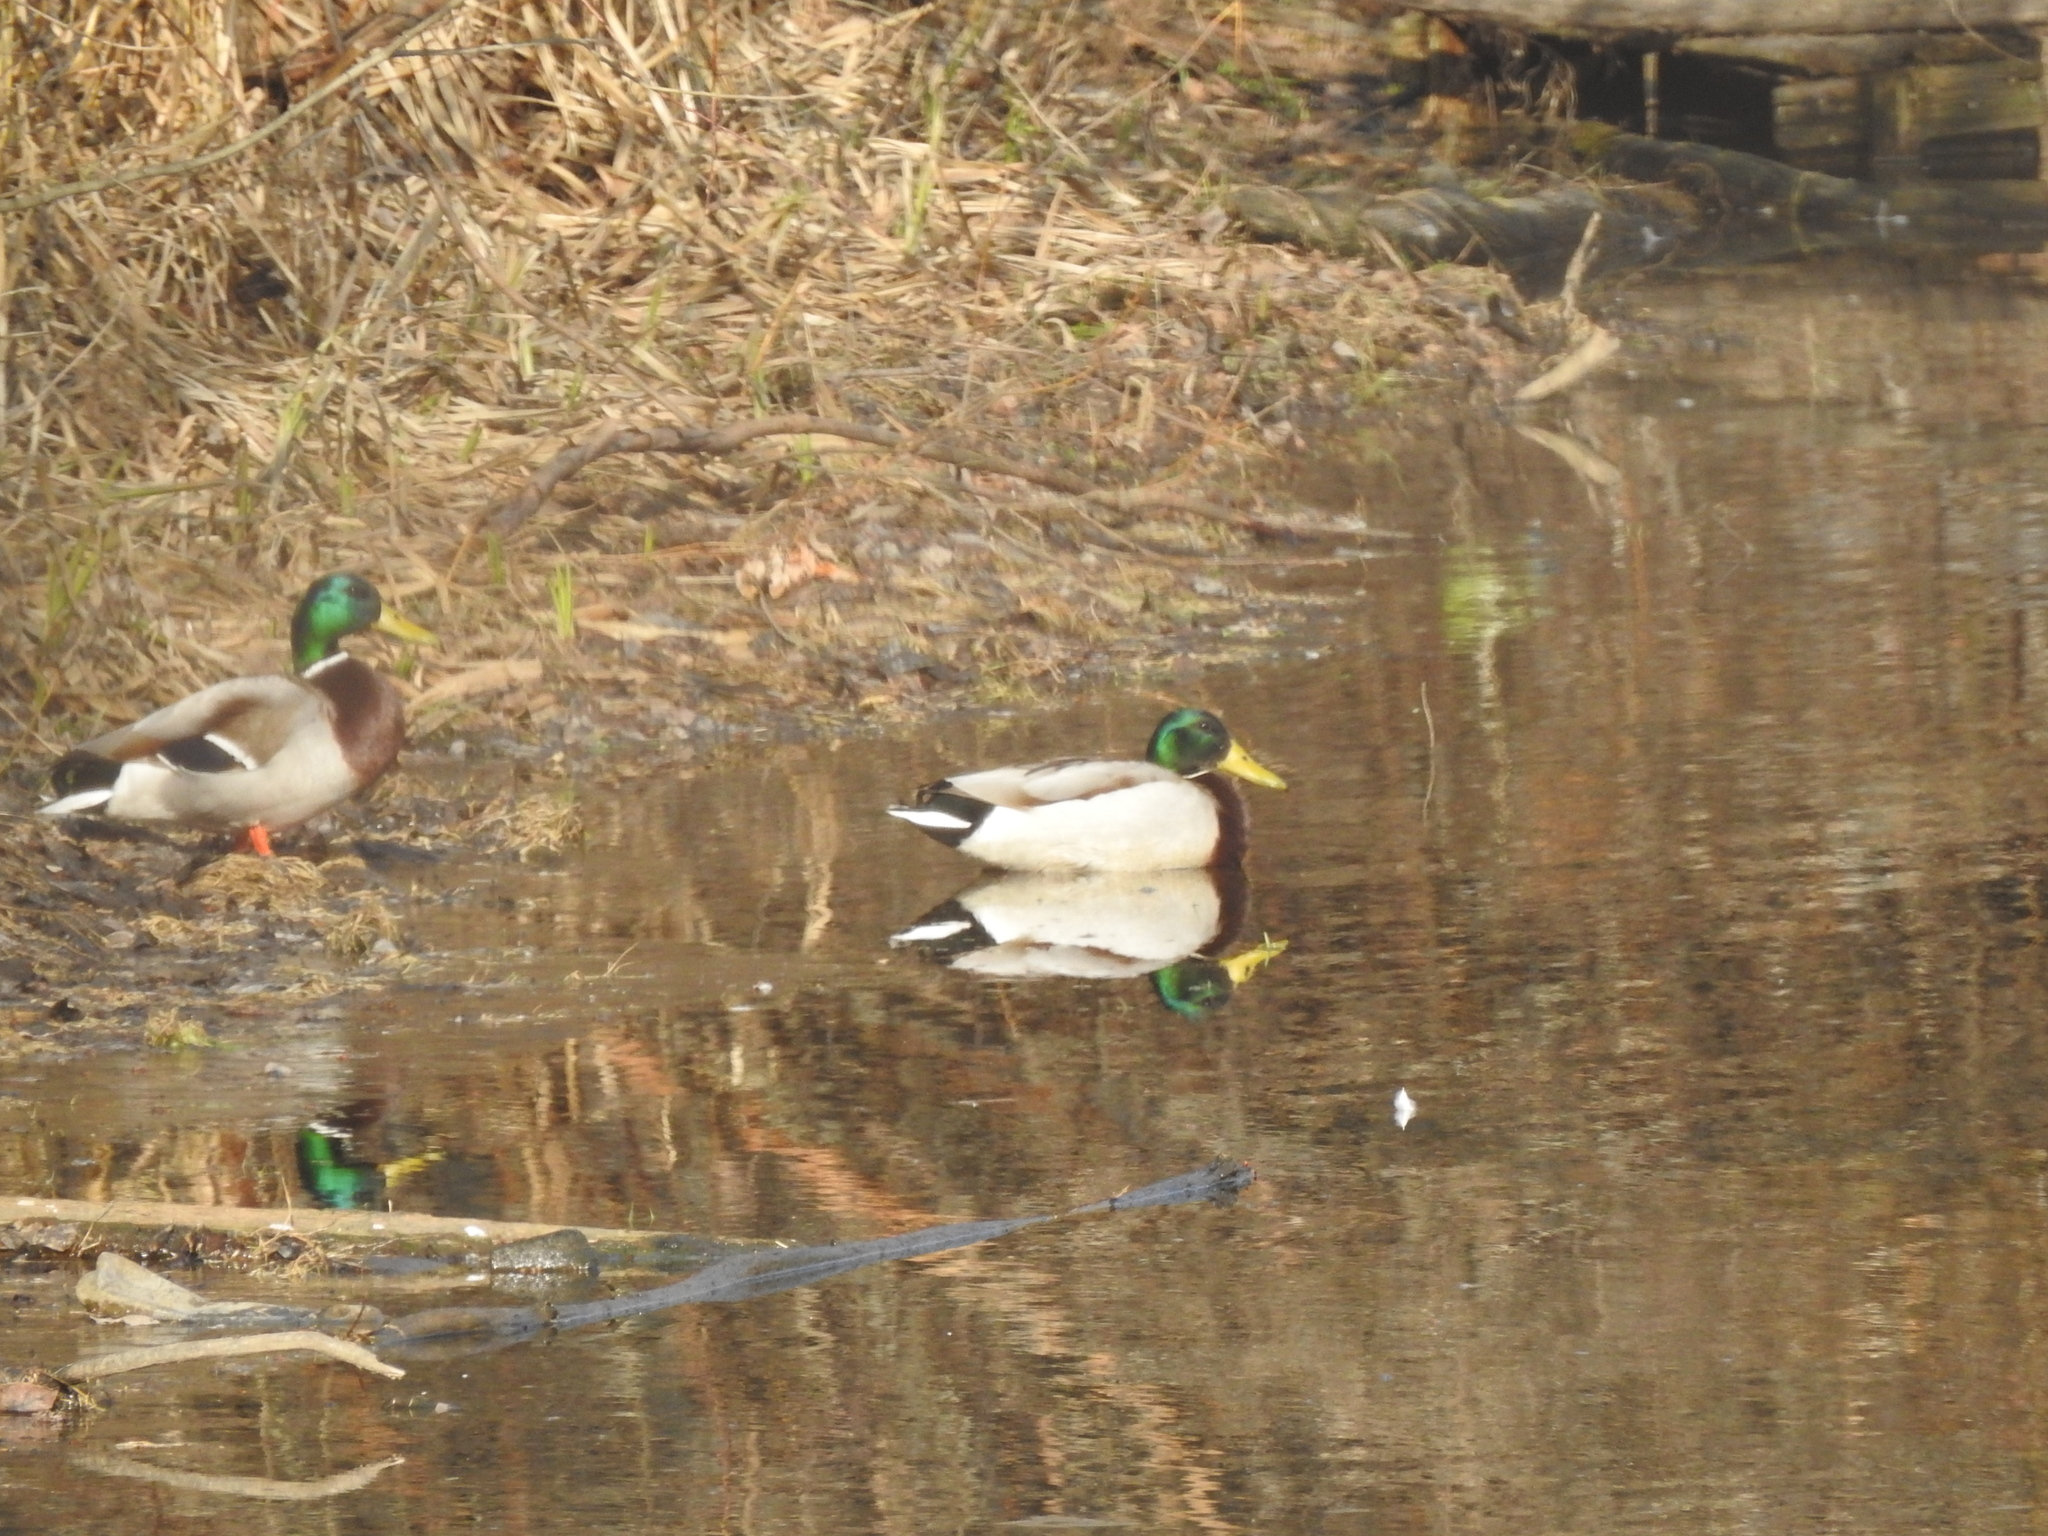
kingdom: Animalia
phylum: Chordata
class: Aves
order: Anseriformes
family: Anatidae
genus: Anas
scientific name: Anas platyrhynchos
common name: Mallard
